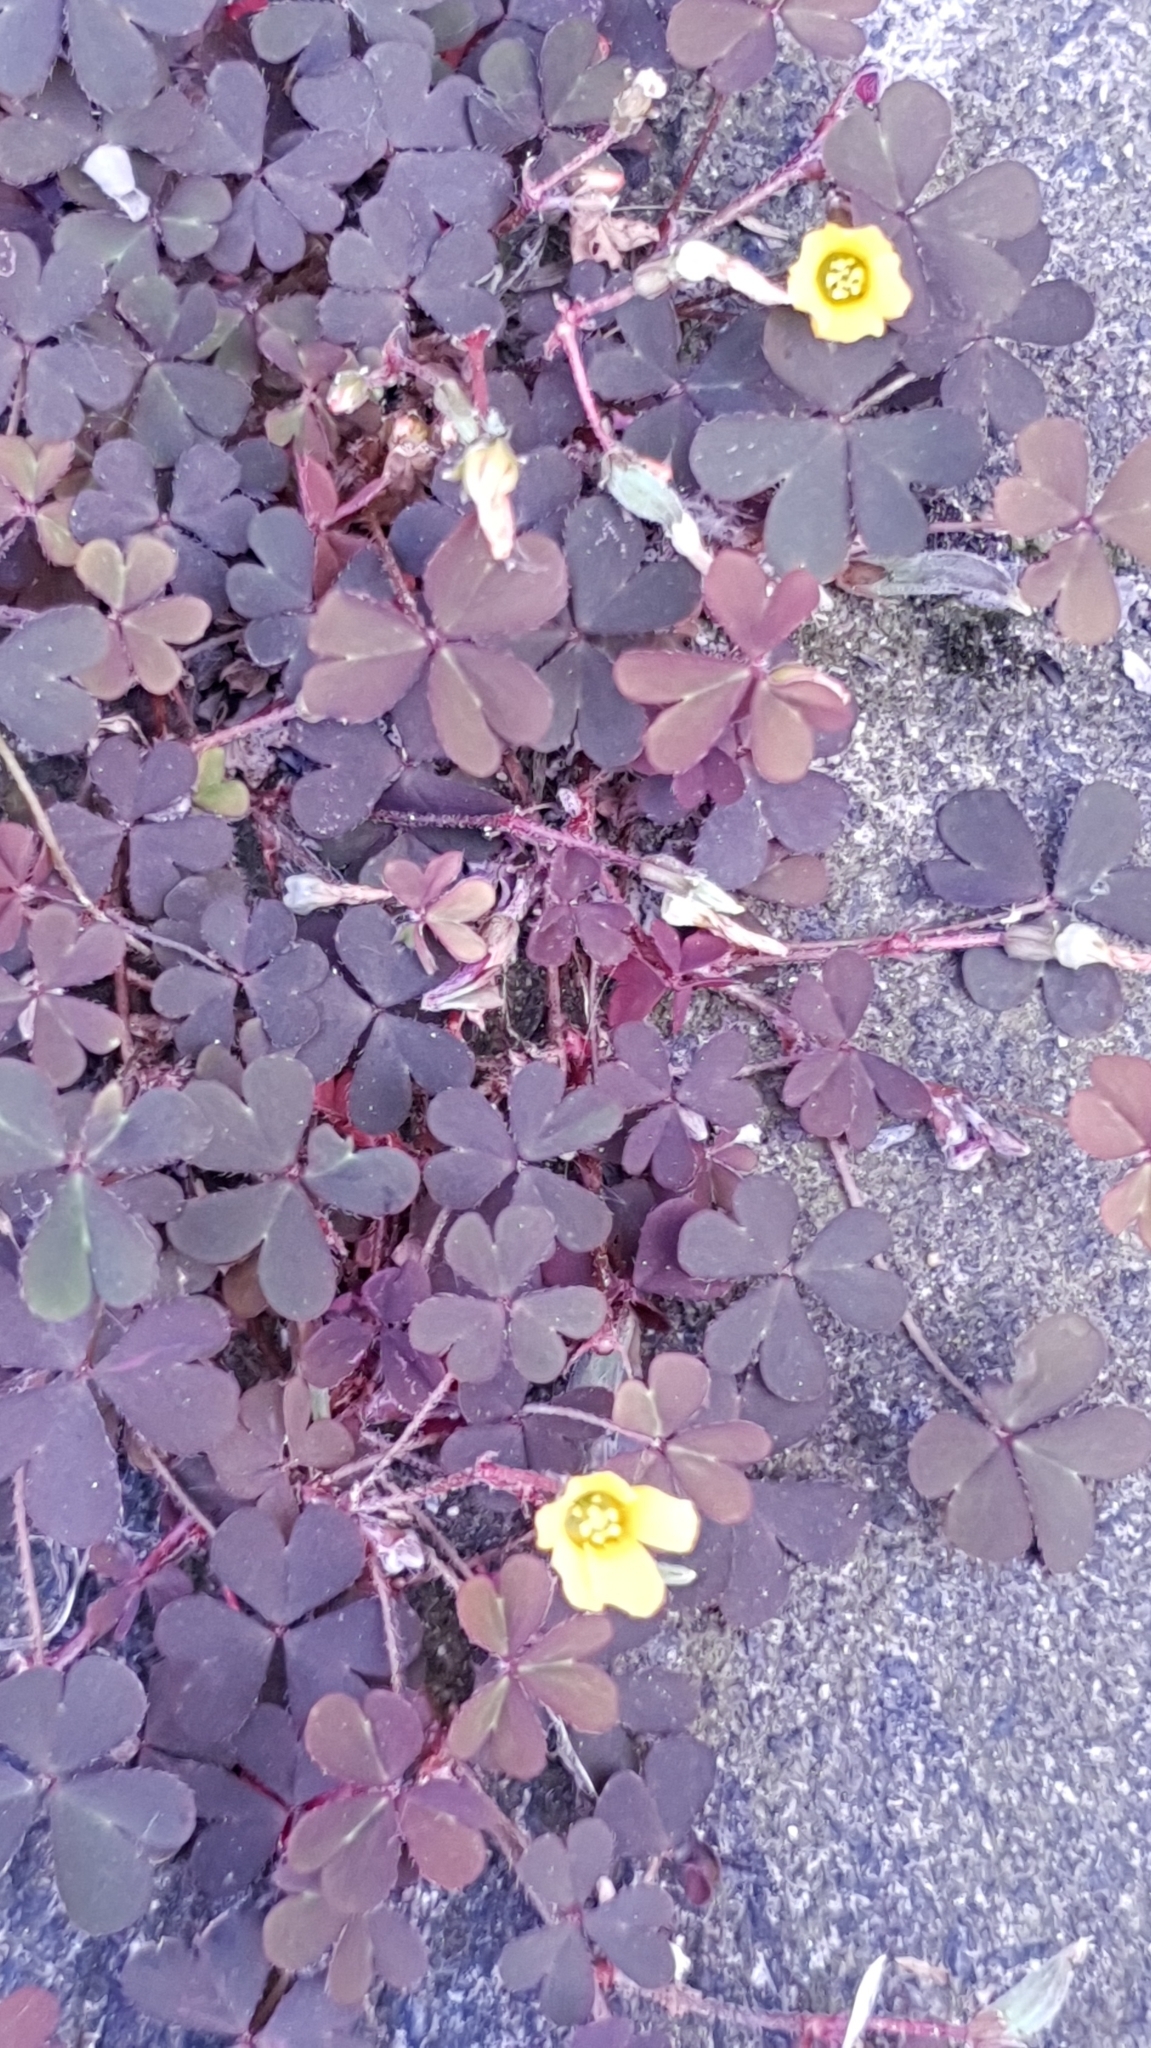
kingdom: Plantae
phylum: Tracheophyta
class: Magnoliopsida
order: Oxalidales
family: Oxalidaceae
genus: Oxalis
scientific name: Oxalis corniculata
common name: Procumbent yellow-sorrel
